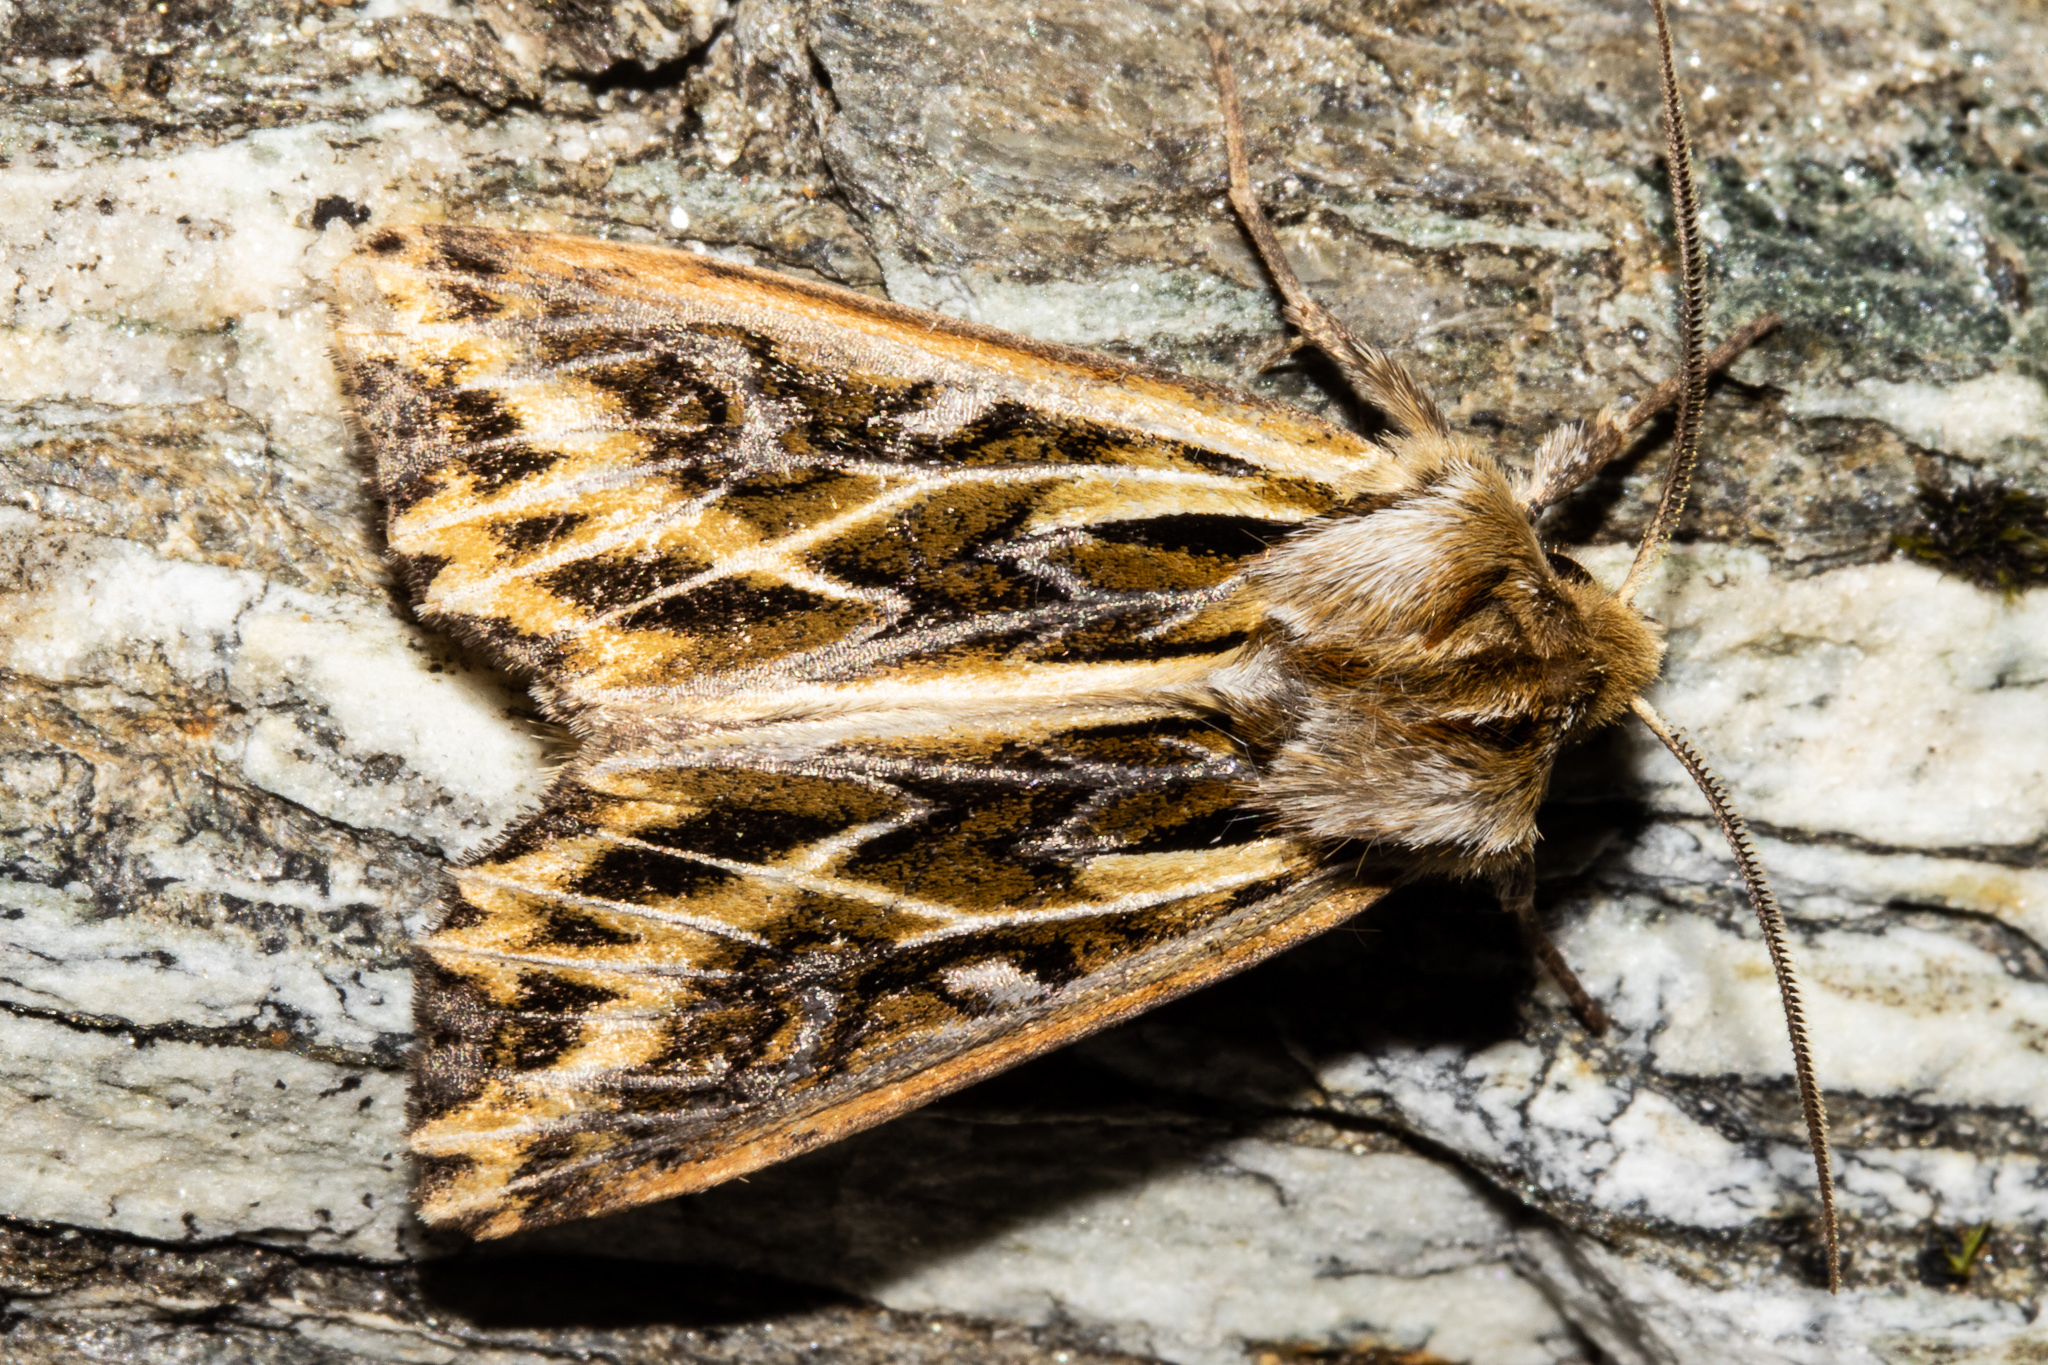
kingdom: Animalia
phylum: Arthropoda
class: Insecta
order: Lepidoptera
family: Noctuidae
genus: Ichneutica
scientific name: Ichneutica
